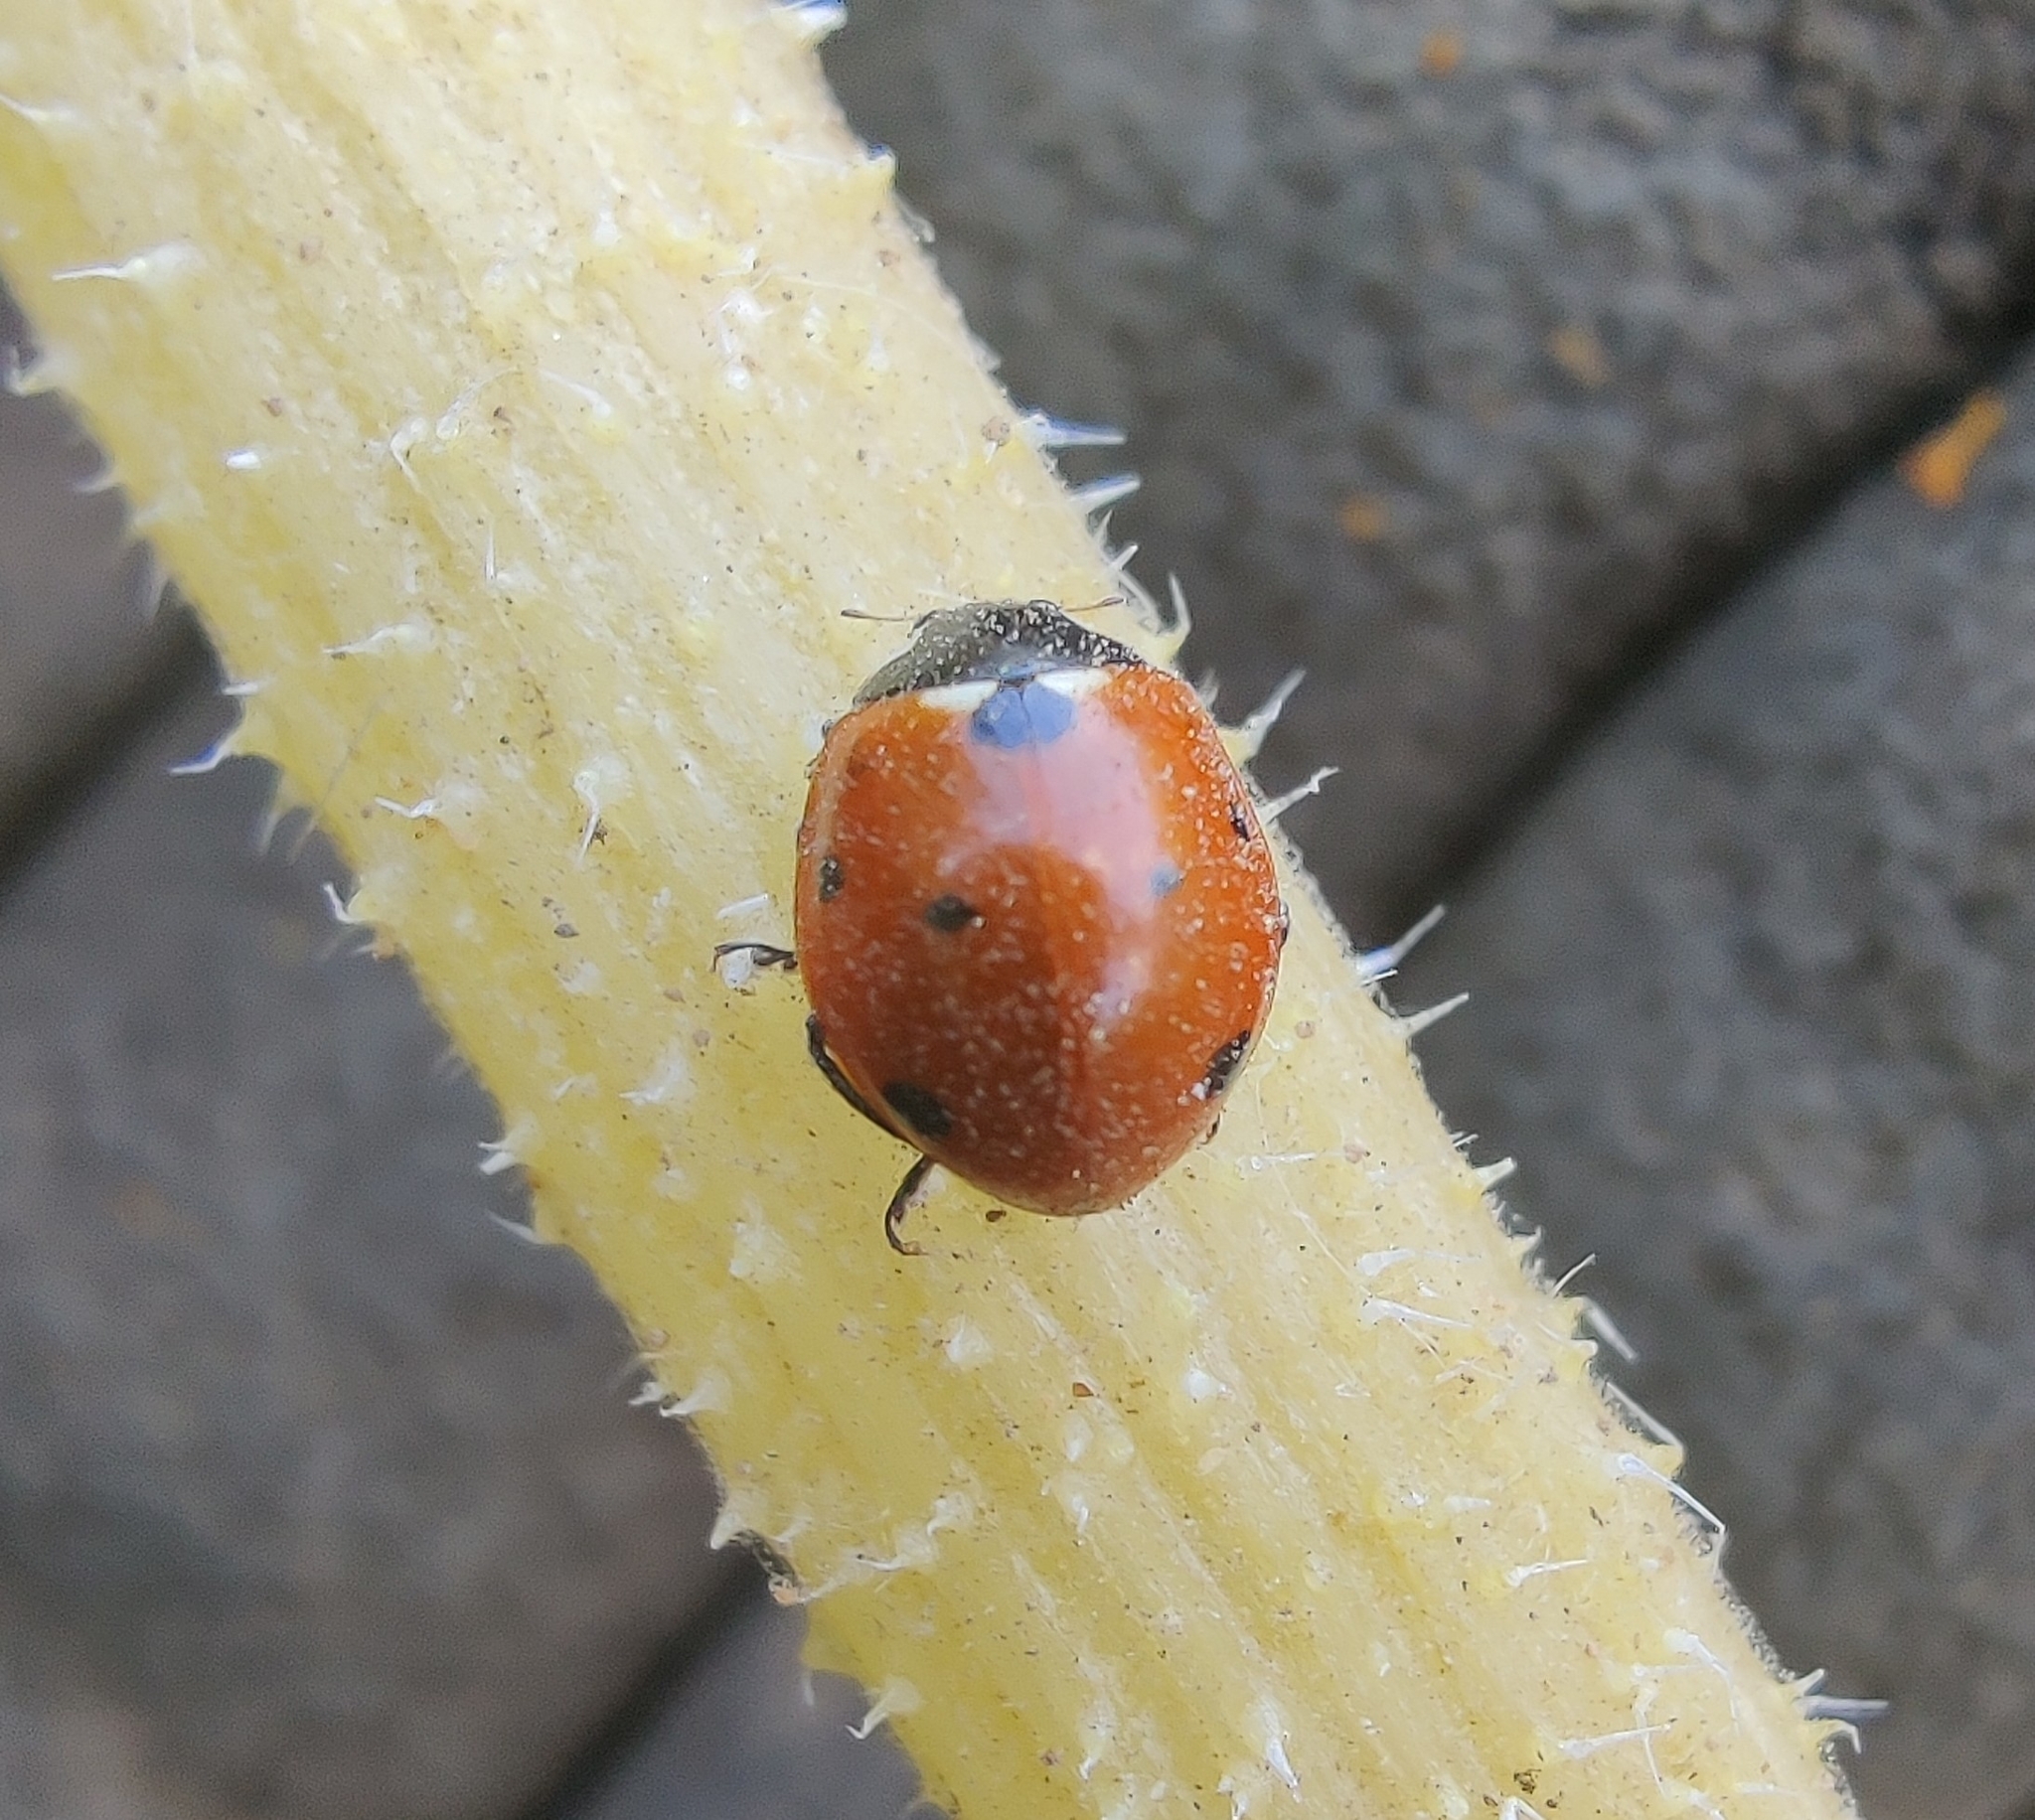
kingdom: Animalia
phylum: Arthropoda
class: Insecta
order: Coleoptera
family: Coccinellidae
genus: Coccinella
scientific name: Coccinella septempunctata
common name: Sevenspotted lady beetle
